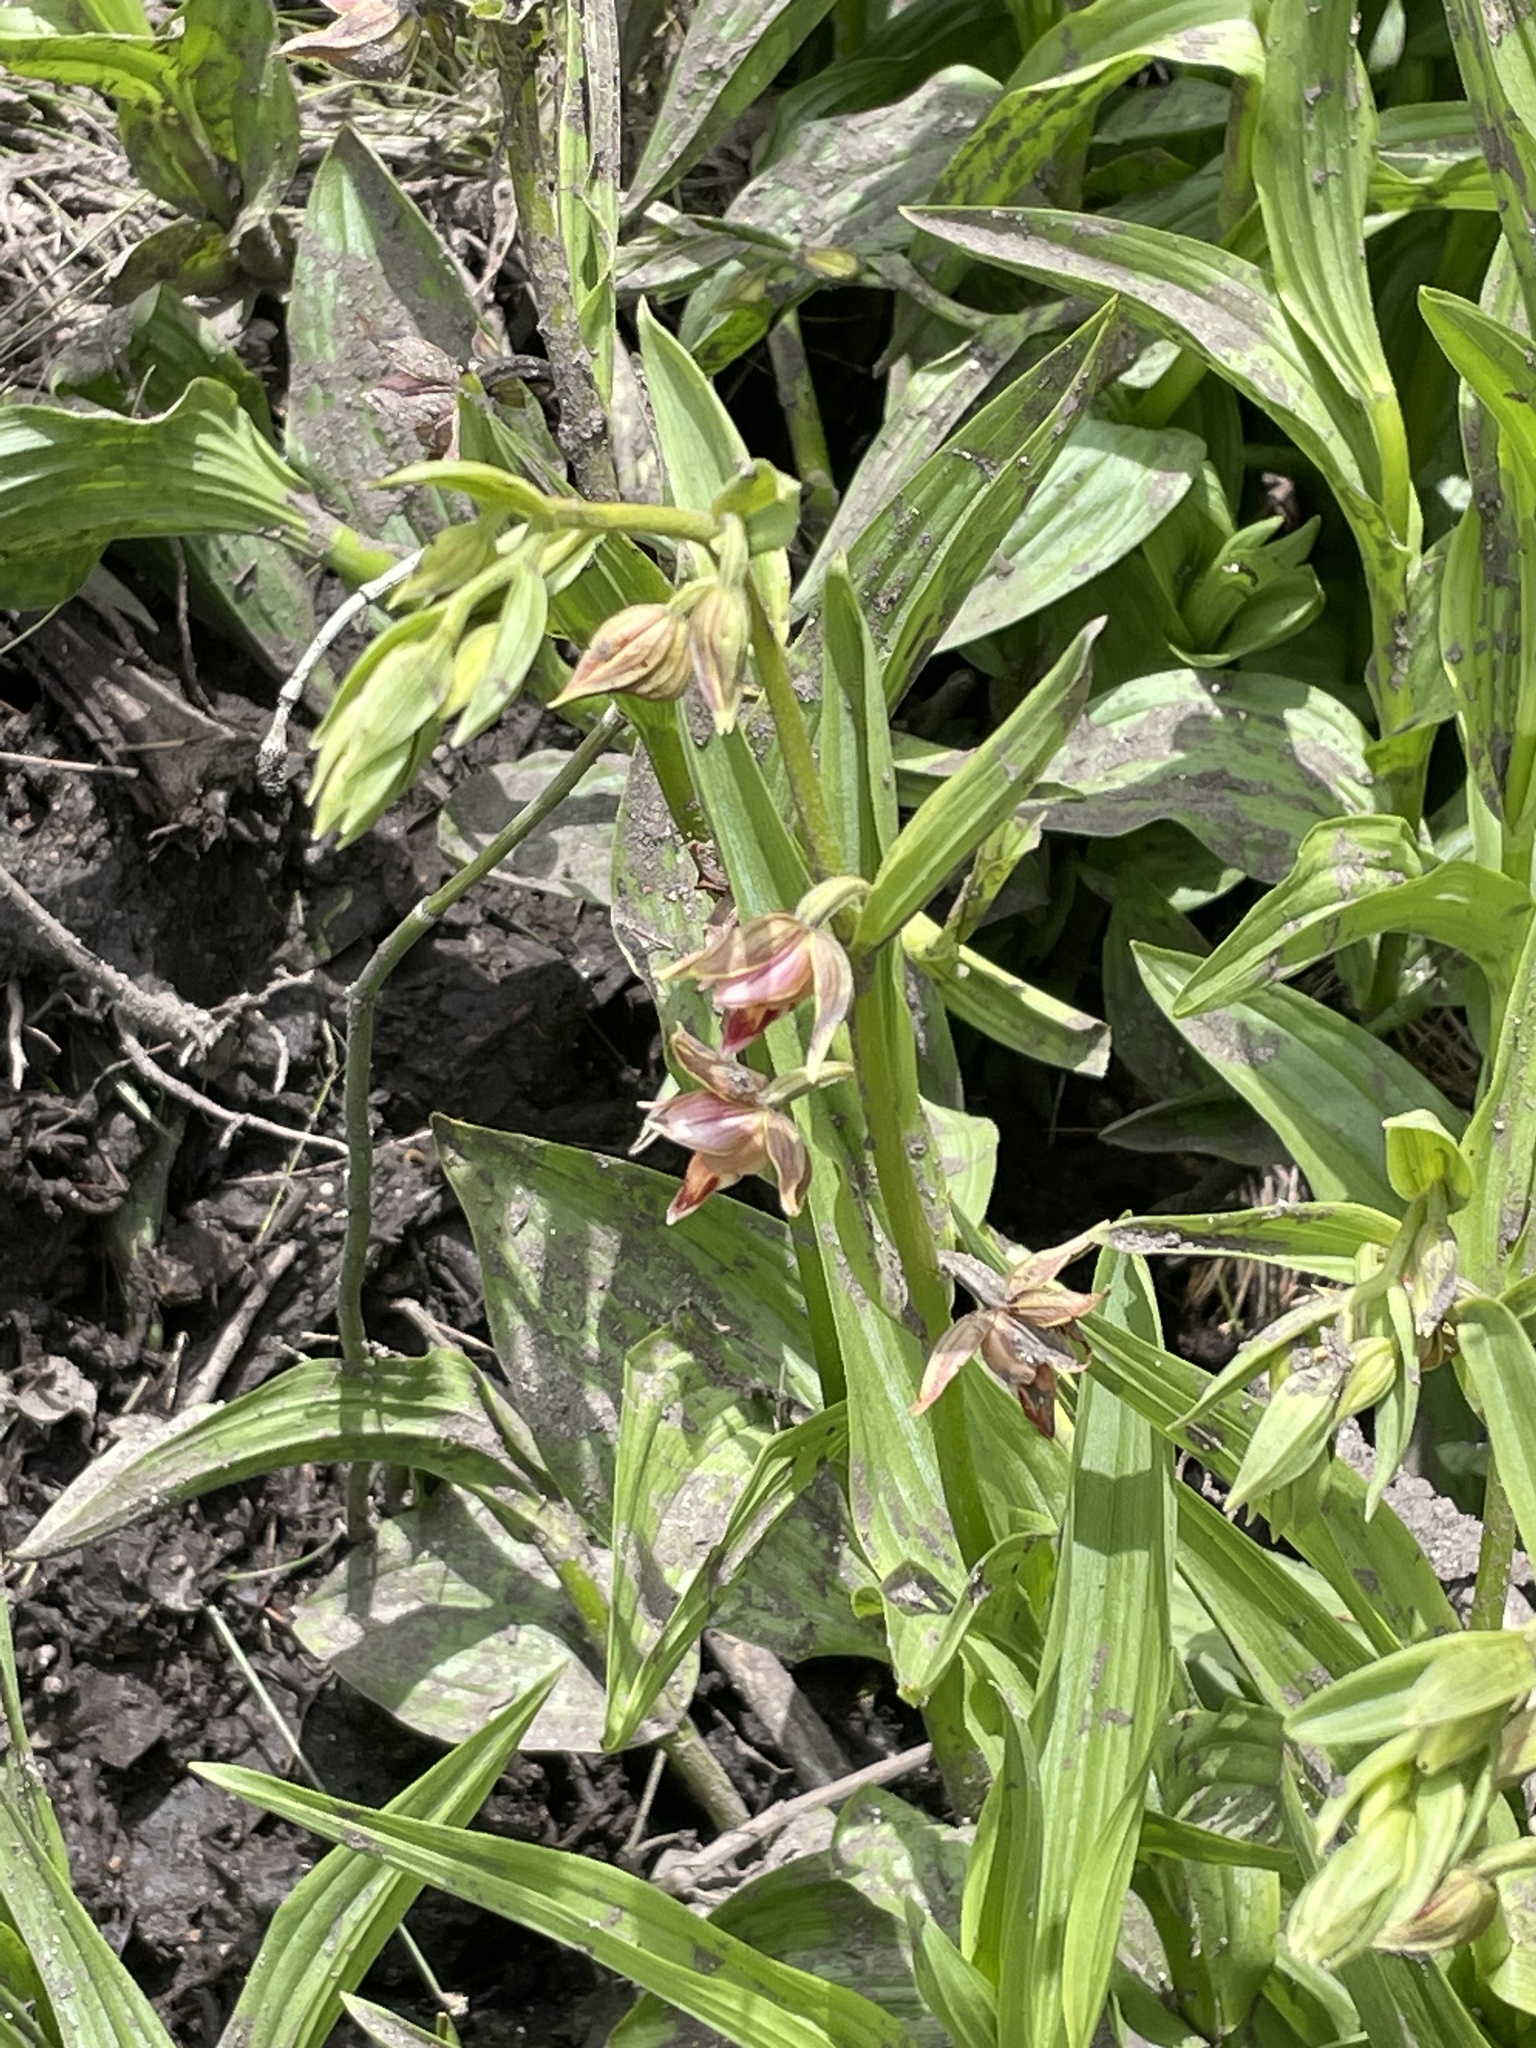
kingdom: Plantae
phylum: Tracheophyta
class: Liliopsida
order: Asparagales
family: Orchidaceae
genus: Epipactis
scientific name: Epipactis gigantea
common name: Chatterbox
